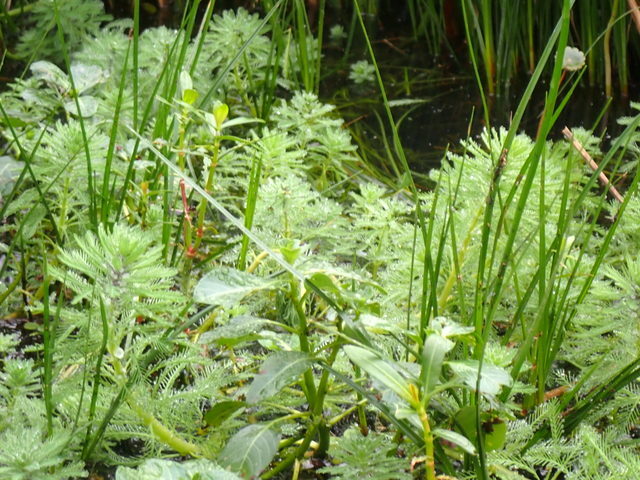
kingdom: Plantae
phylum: Tracheophyta
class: Magnoliopsida
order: Saxifragales
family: Haloragaceae
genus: Myriophyllum
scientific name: Myriophyllum aquaticum
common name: Parrot's feather
